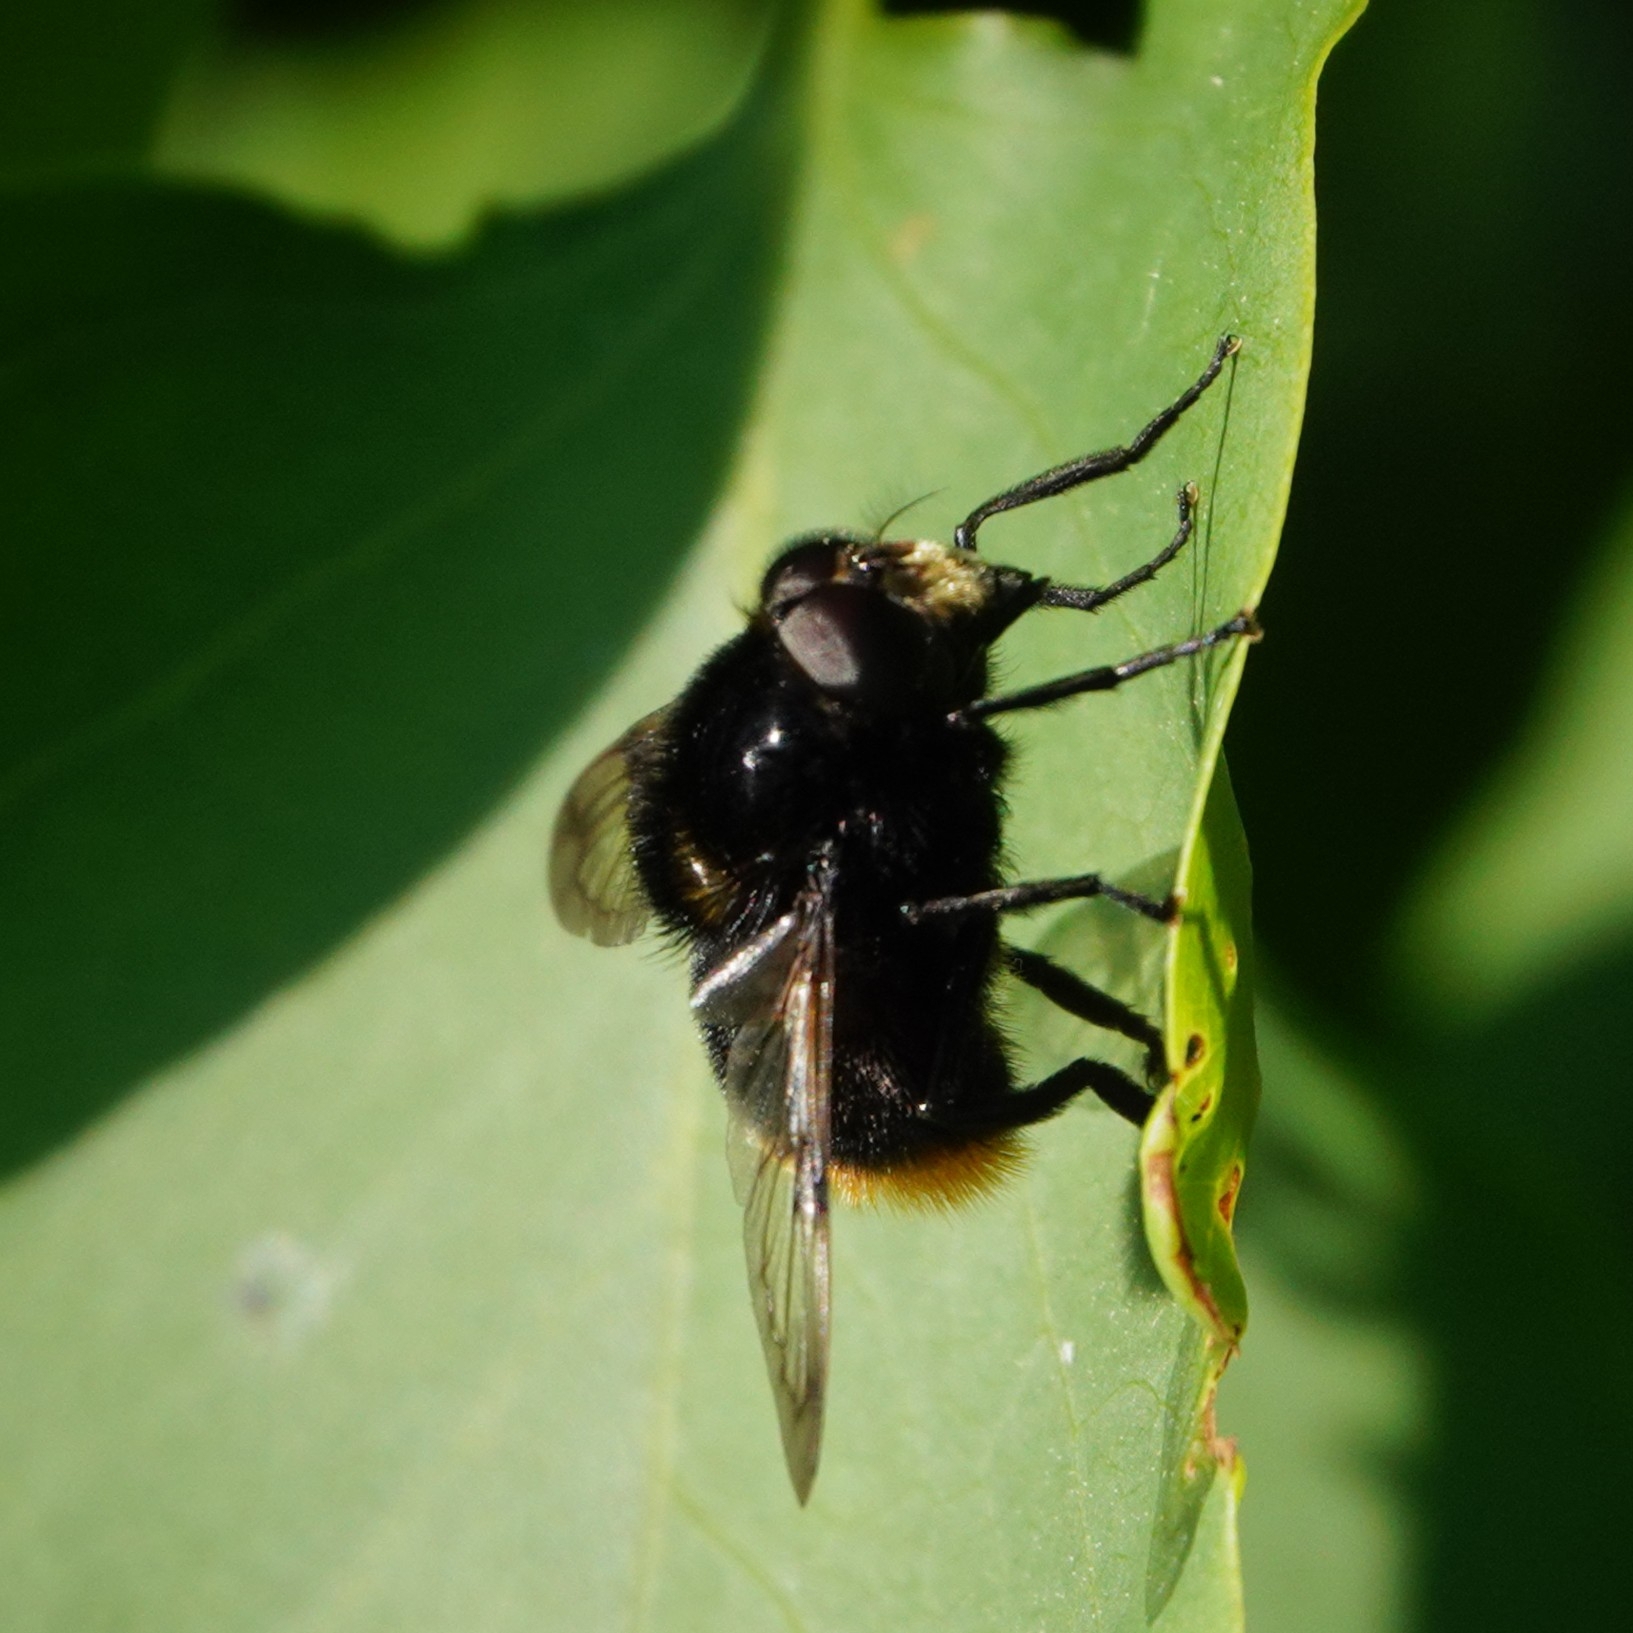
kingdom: Animalia
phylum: Arthropoda
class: Insecta
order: Diptera
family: Syrphidae
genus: Volucella
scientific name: Volucella bombylans
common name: Bumble bee hover fly
